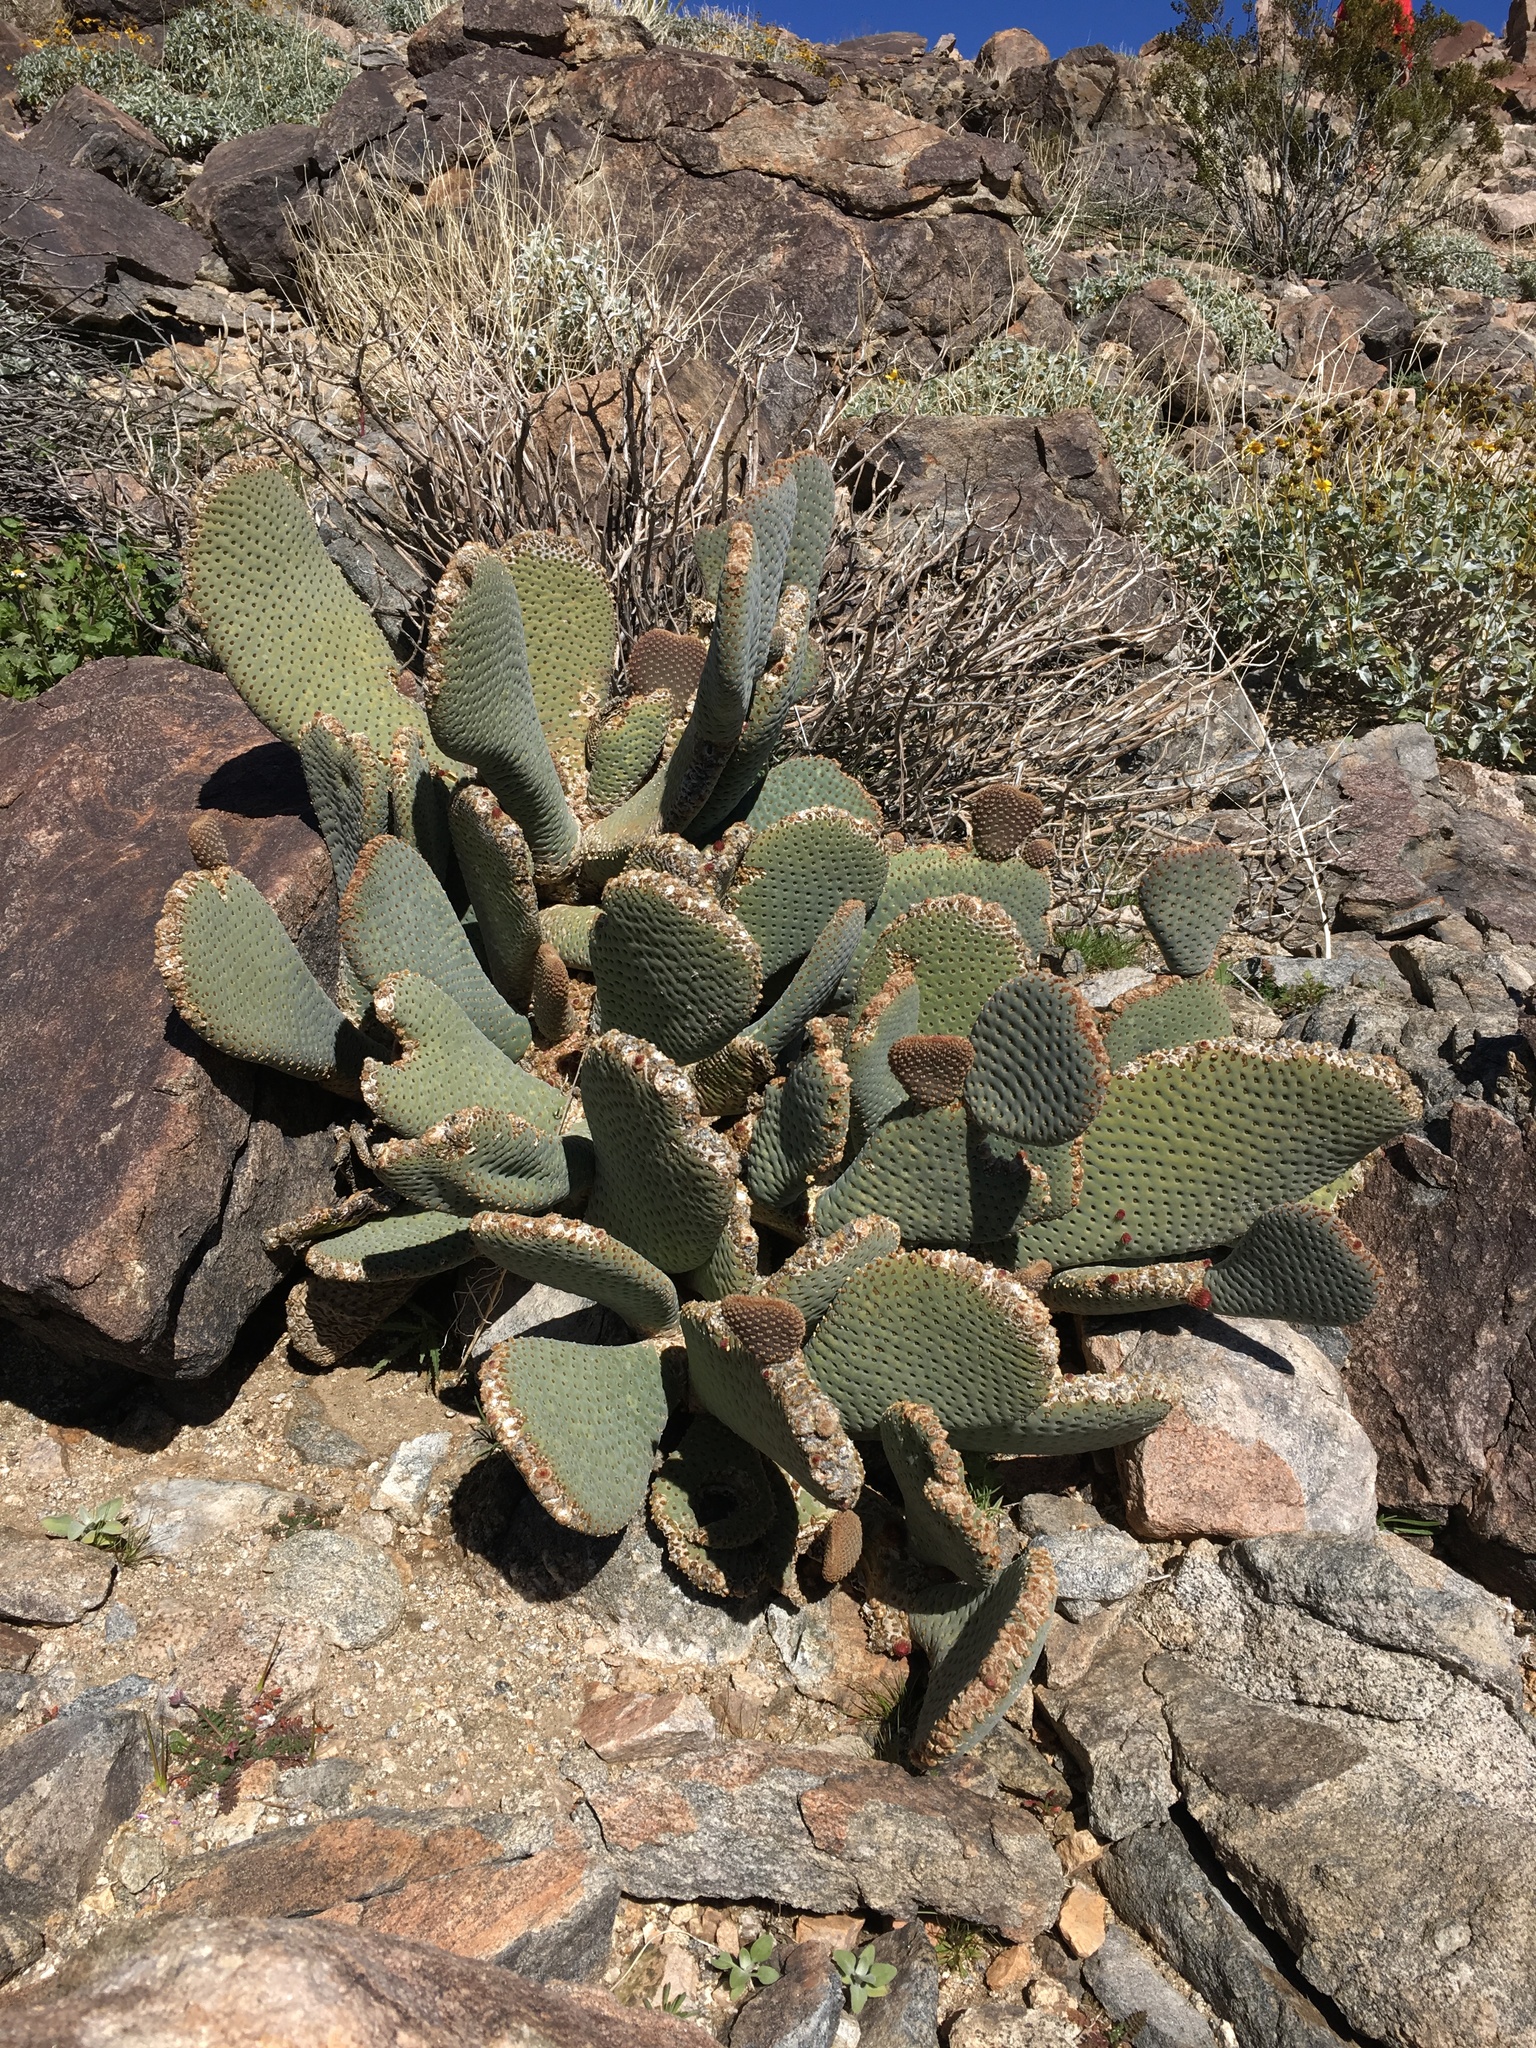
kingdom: Plantae
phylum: Tracheophyta
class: Magnoliopsida
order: Caryophyllales
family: Cactaceae
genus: Opuntia
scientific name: Opuntia basilaris
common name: Beavertail prickly-pear
